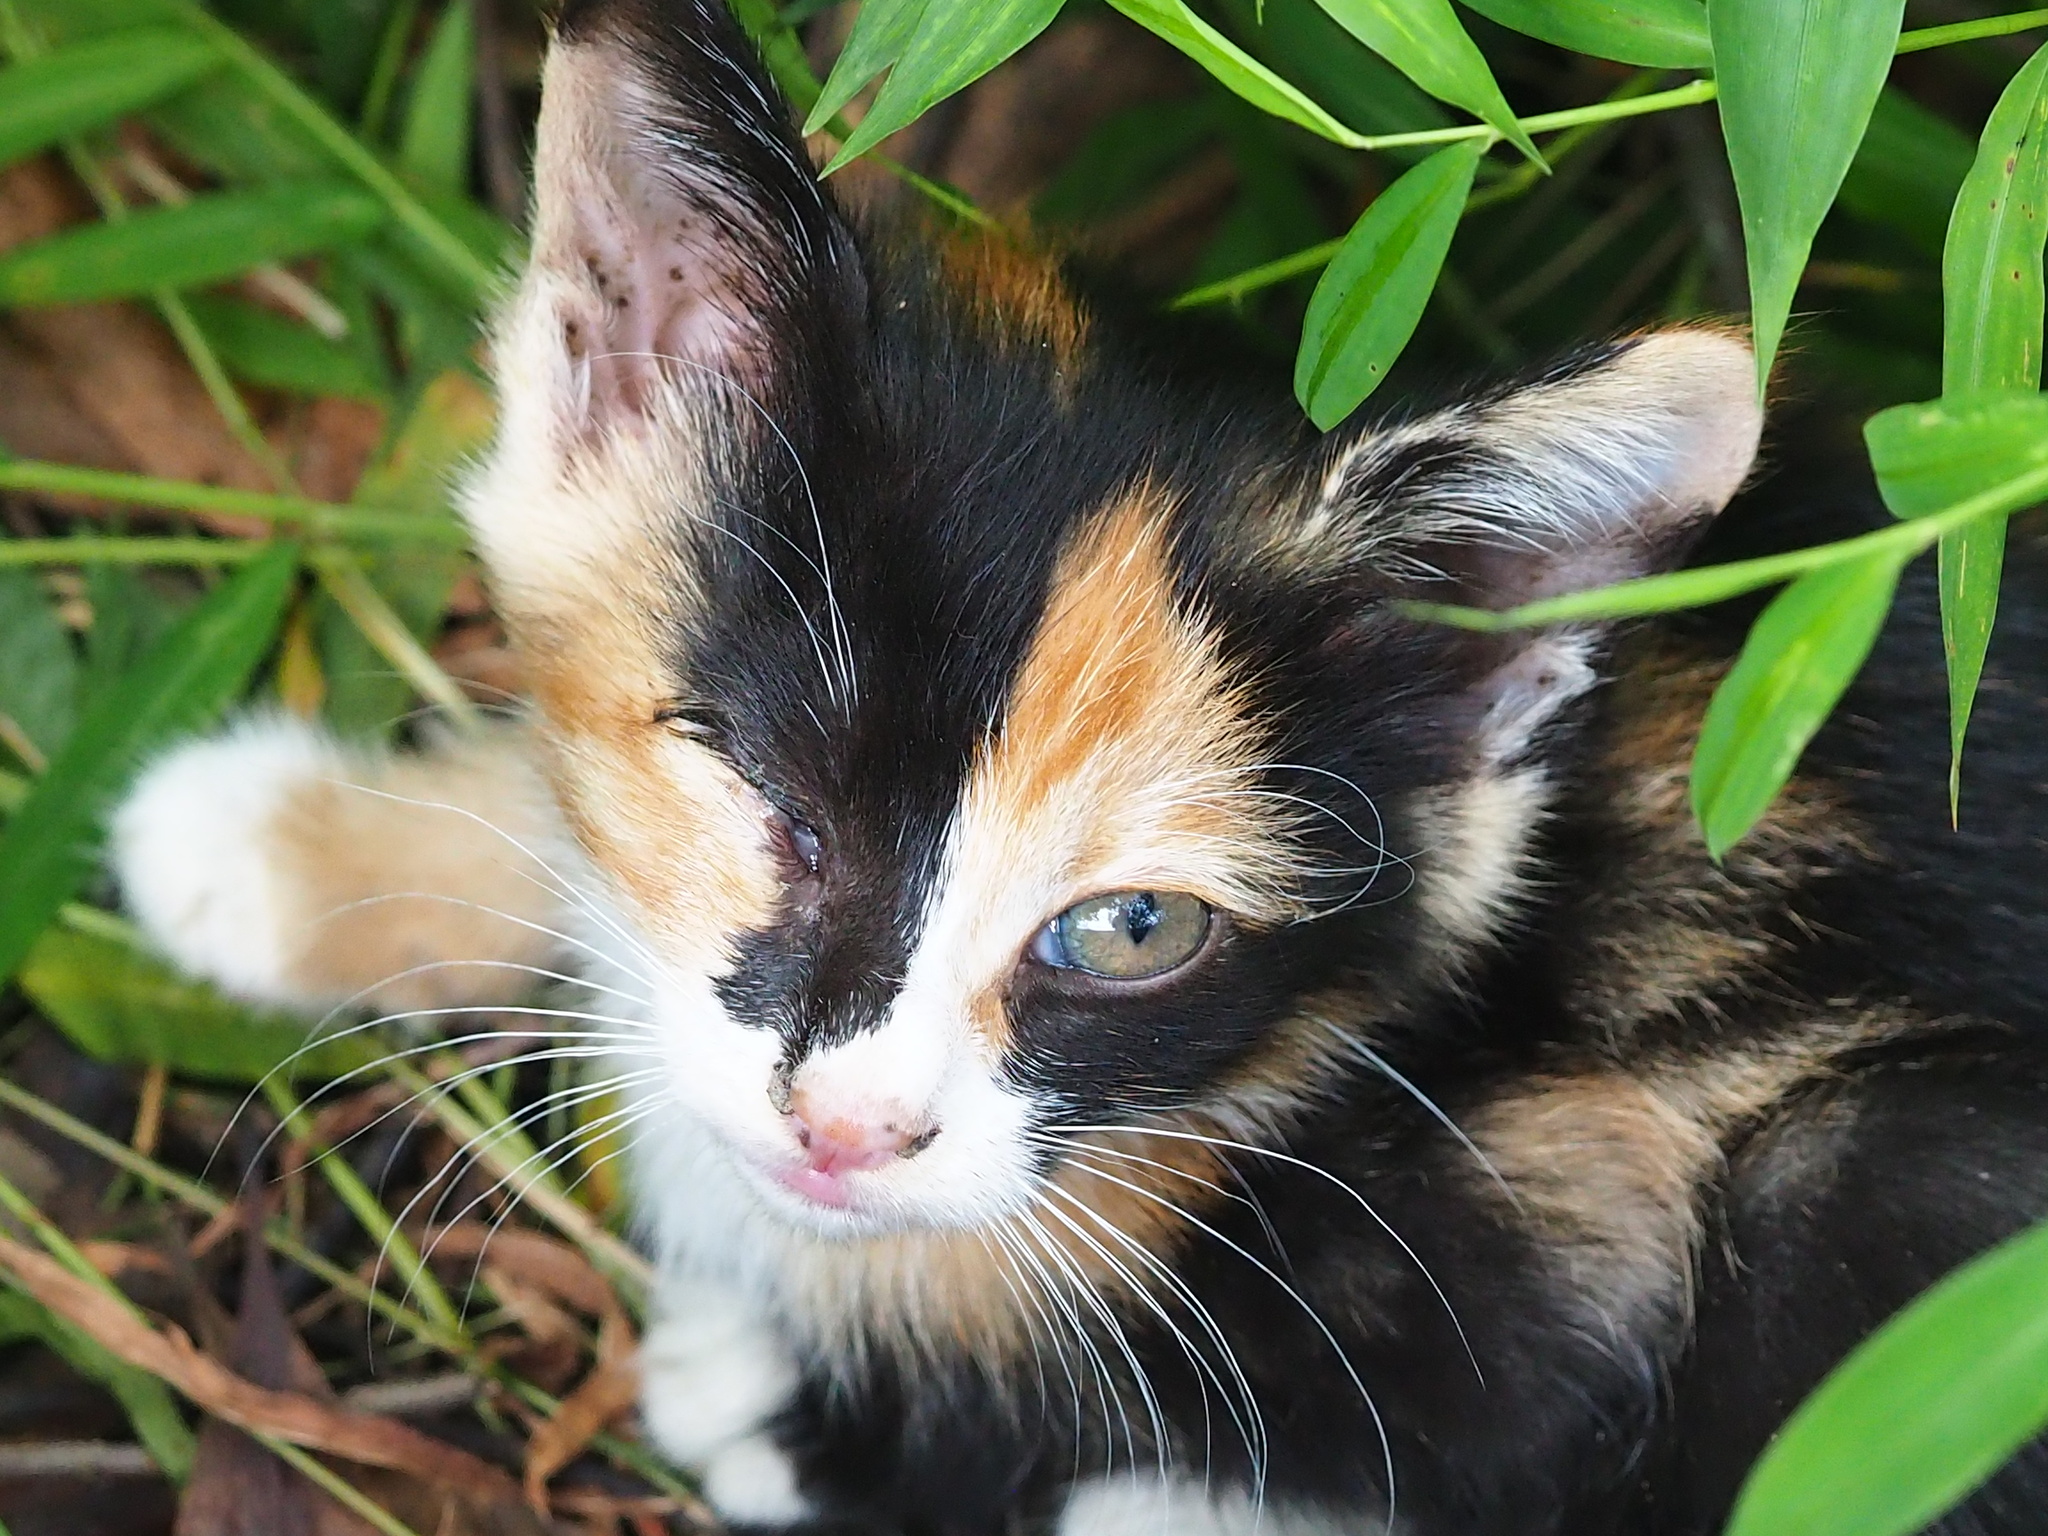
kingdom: Animalia
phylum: Chordata
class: Mammalia
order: Carnivora
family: Felidae
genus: Felis
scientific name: Felis catus
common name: Domestic cat
